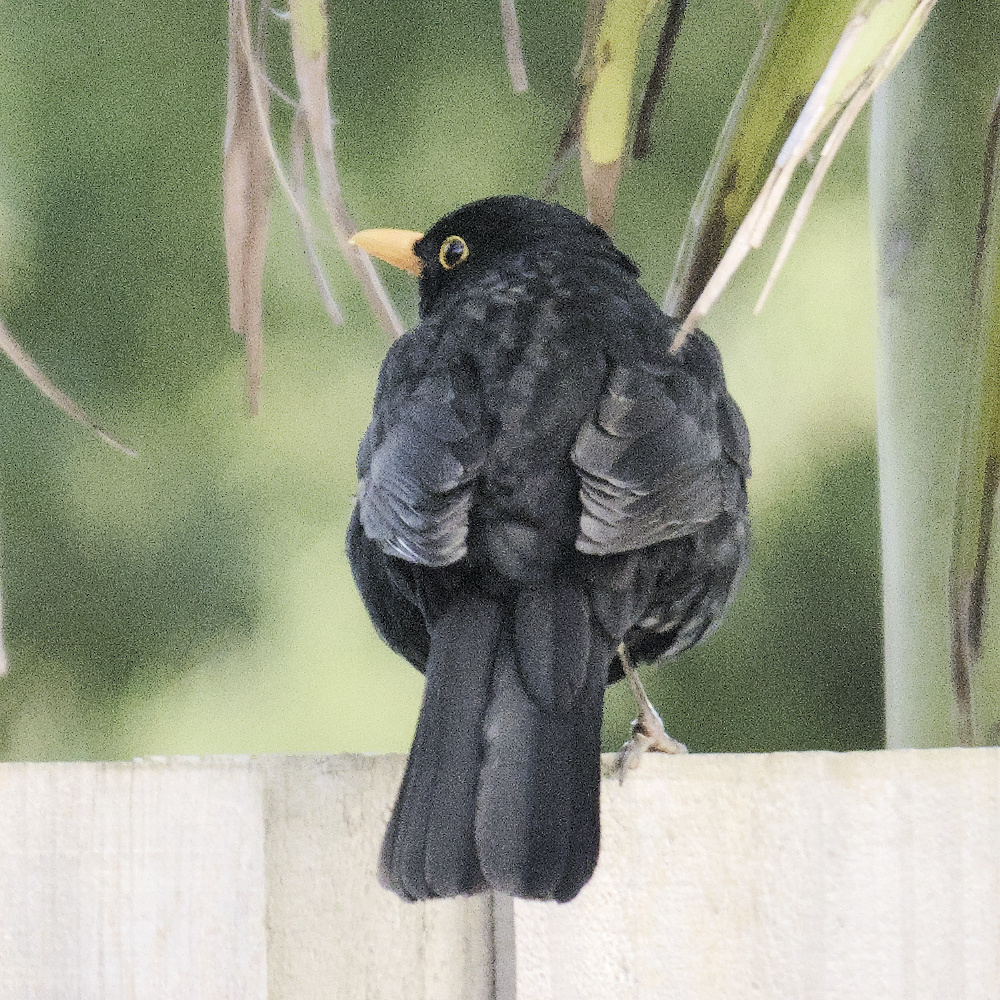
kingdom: Animalia
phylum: Chordata
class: Aves
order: Passeriformes
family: Turdidae
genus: Turdus
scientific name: Turdus merula
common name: Common blackbird
